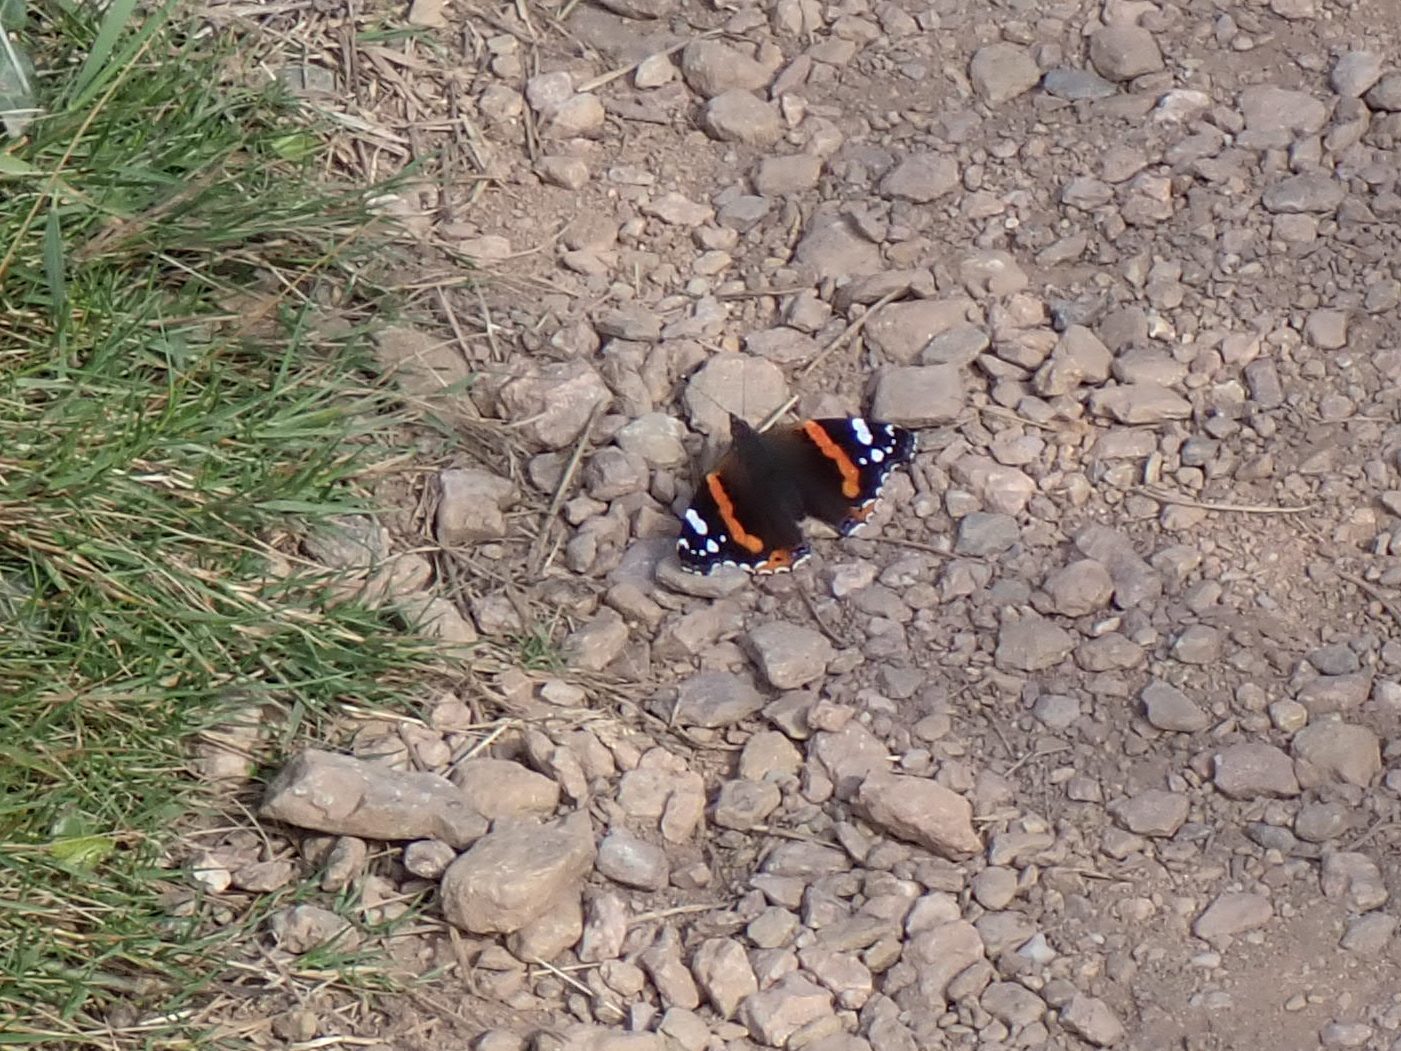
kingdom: Animalia
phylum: Arthropoda
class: Insecta
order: Lepidoptera
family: Nymphalidae
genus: Vanessa
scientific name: Vanessa atalanta
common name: Red admiral
